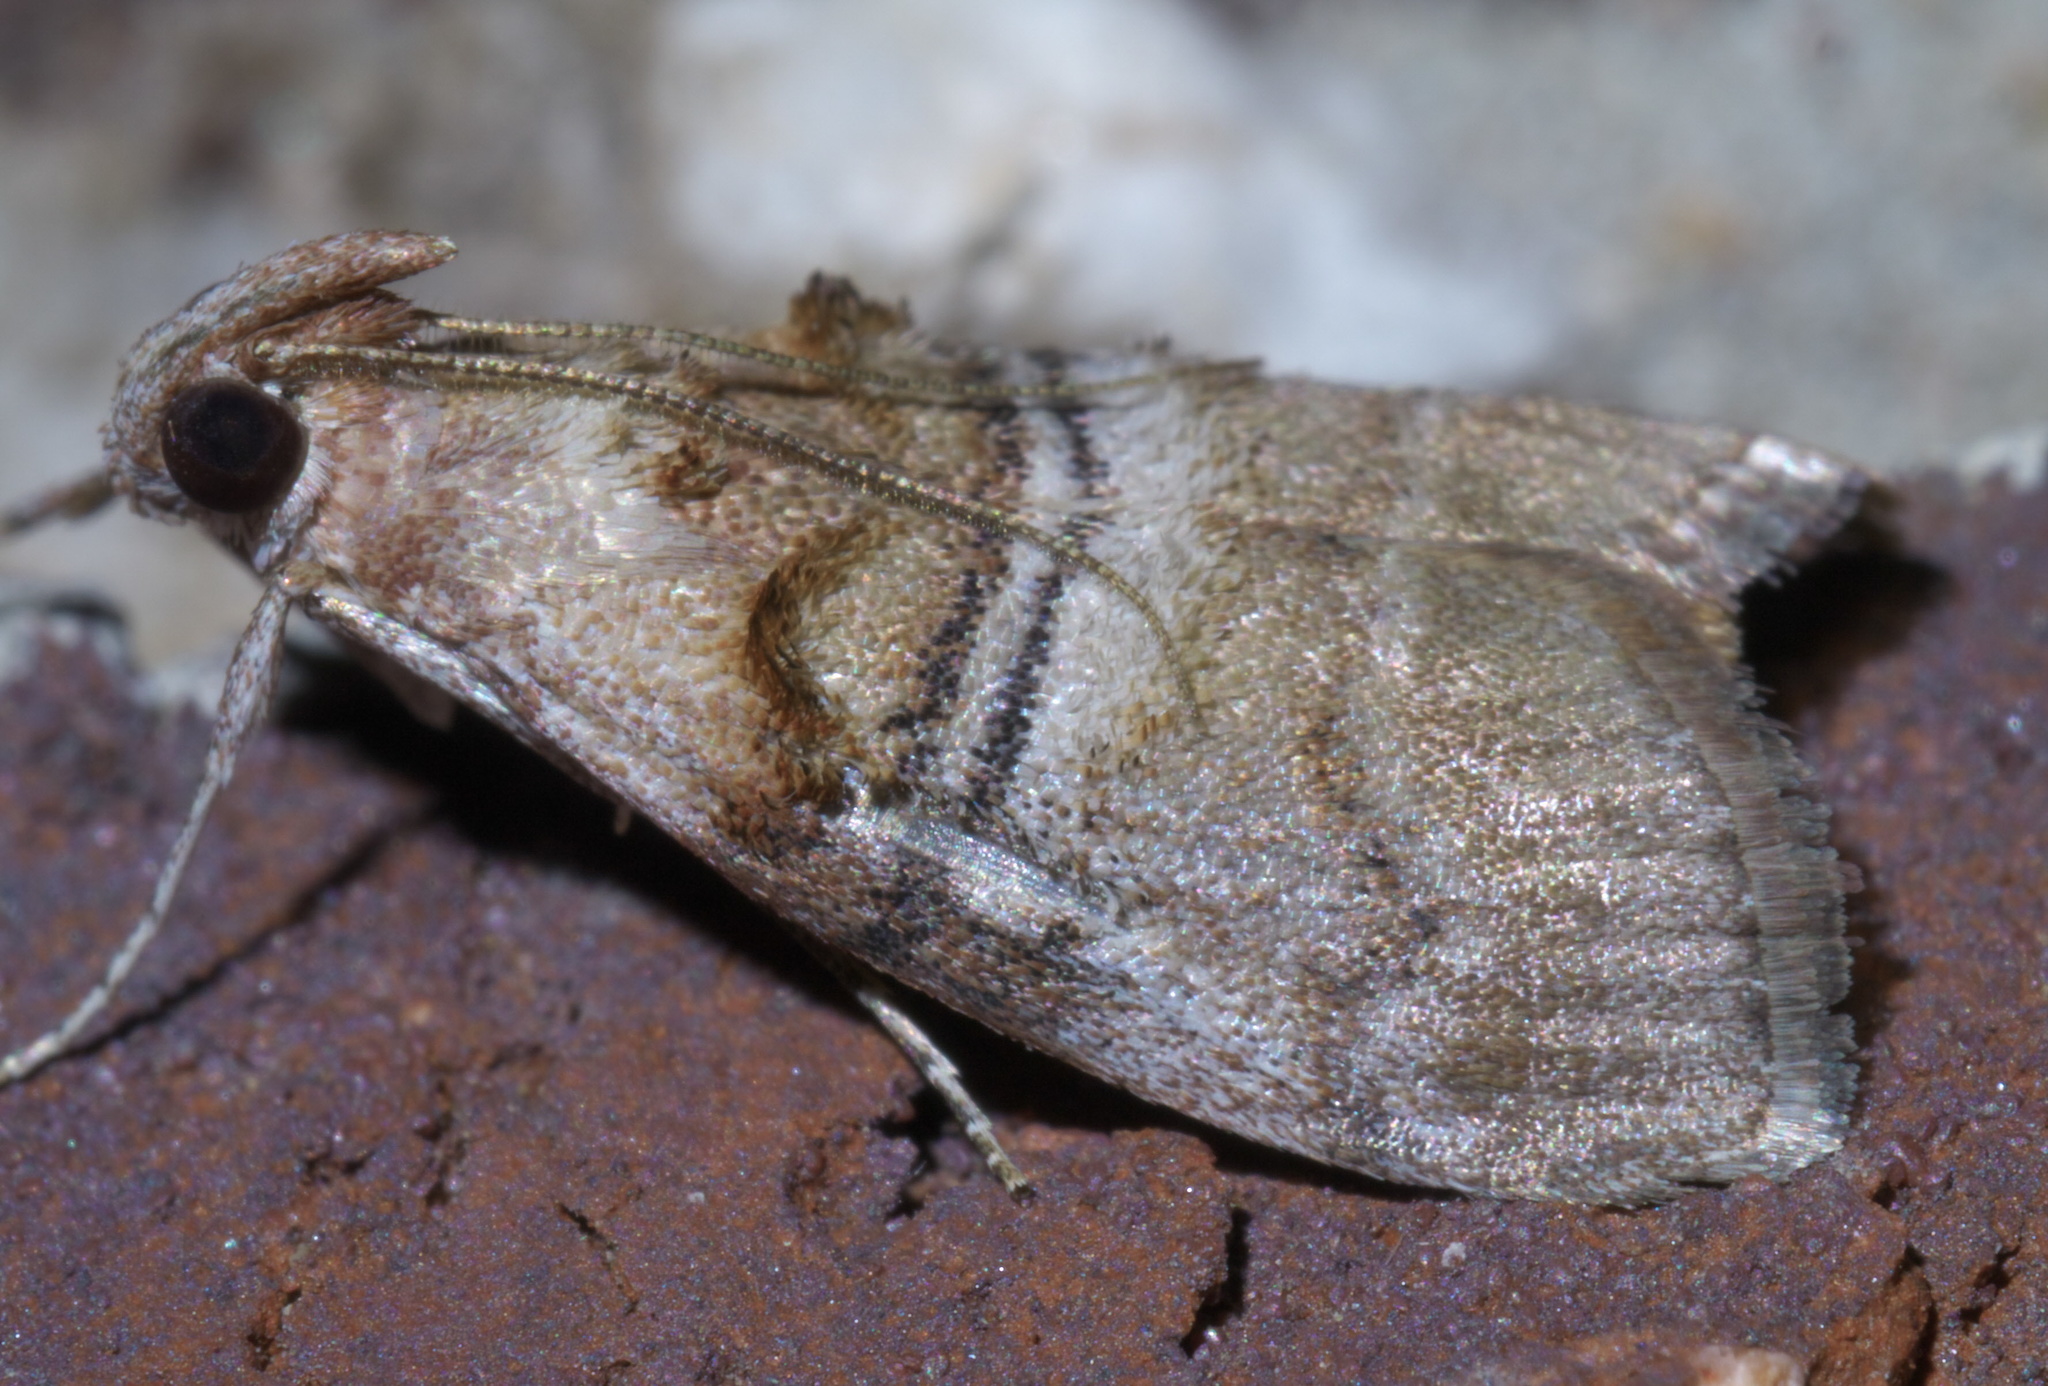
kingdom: Animalia
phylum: Arthropoda
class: Insecta
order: Lepidoptera
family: Pyralidae
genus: Pococera
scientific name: Pococera militella
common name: Sycamore webworm moth
